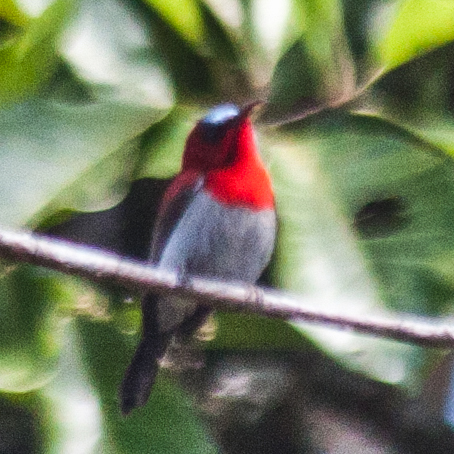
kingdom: Animalia
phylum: Chordata
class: Aves
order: Passeriformes
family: Nectariniidae
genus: Aethopyga
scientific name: Aethopyga siparaja
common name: Crimson sunbird
